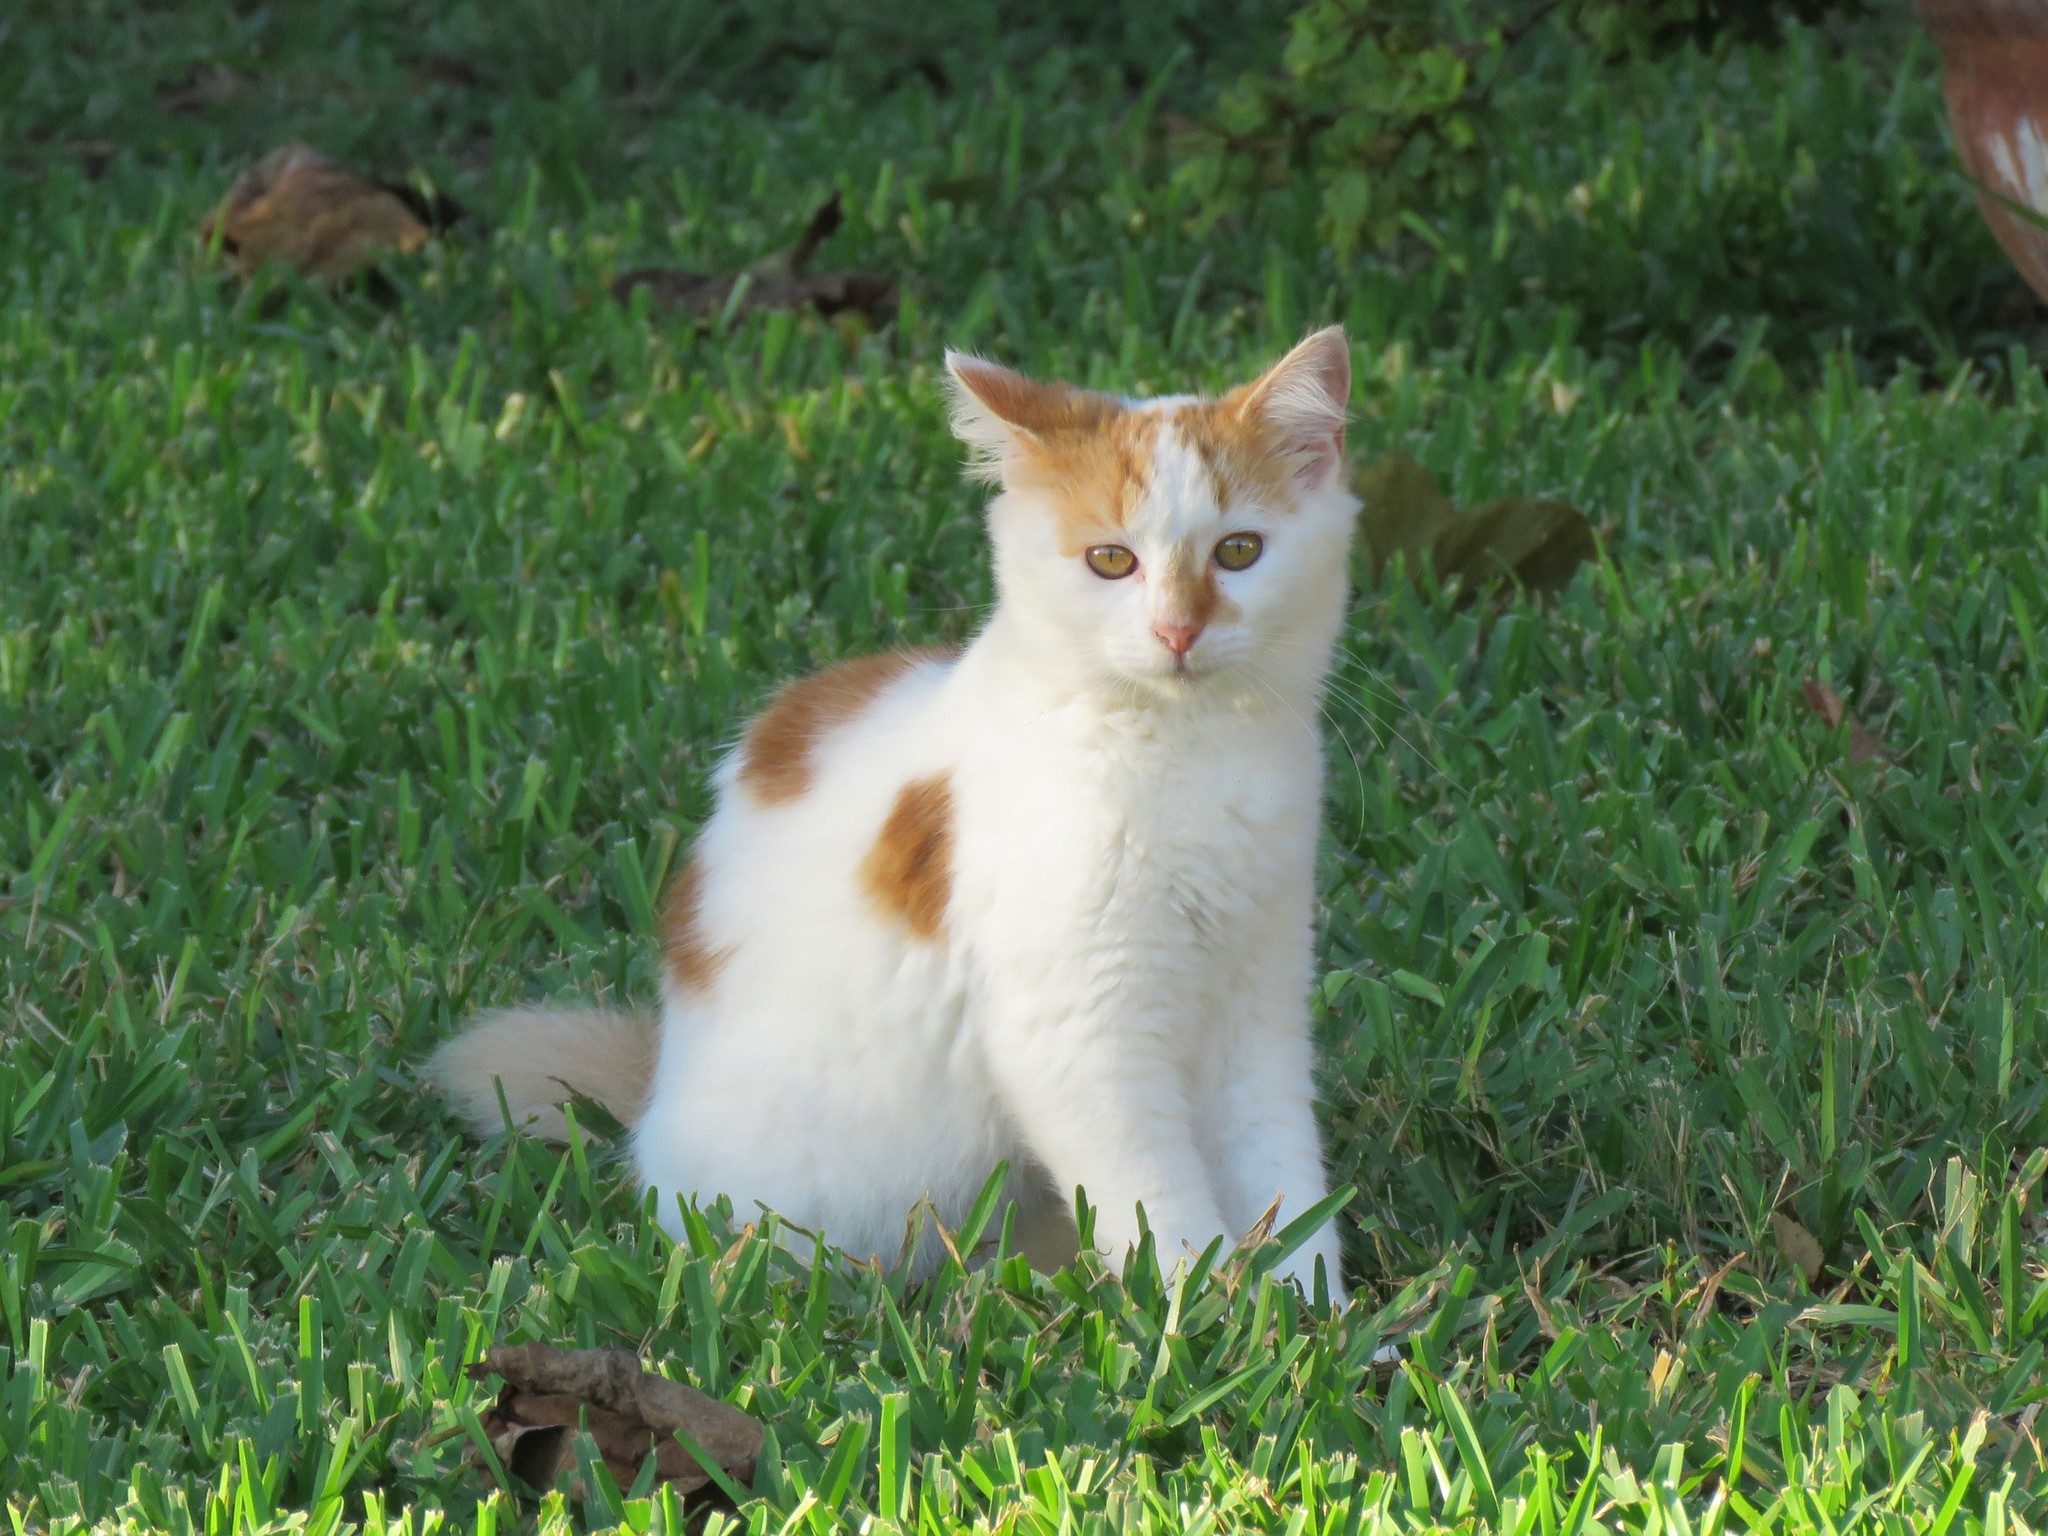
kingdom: Animalia
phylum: Chordata
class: Mammalia
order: Carnivora
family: Felidae
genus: Felis
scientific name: Felis catus
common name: Domestic cat
